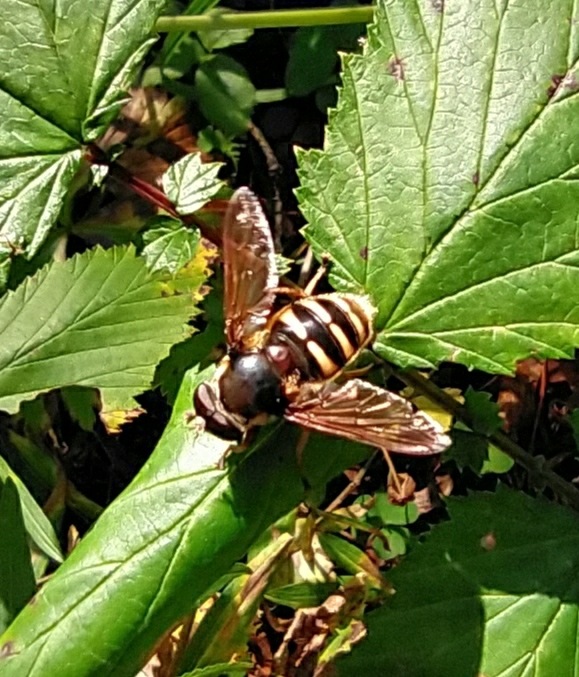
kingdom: Animalia
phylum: Arthropoda
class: Insecta
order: Diptera
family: Syrphidae
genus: Sericomyia
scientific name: Sericomyia silentis
